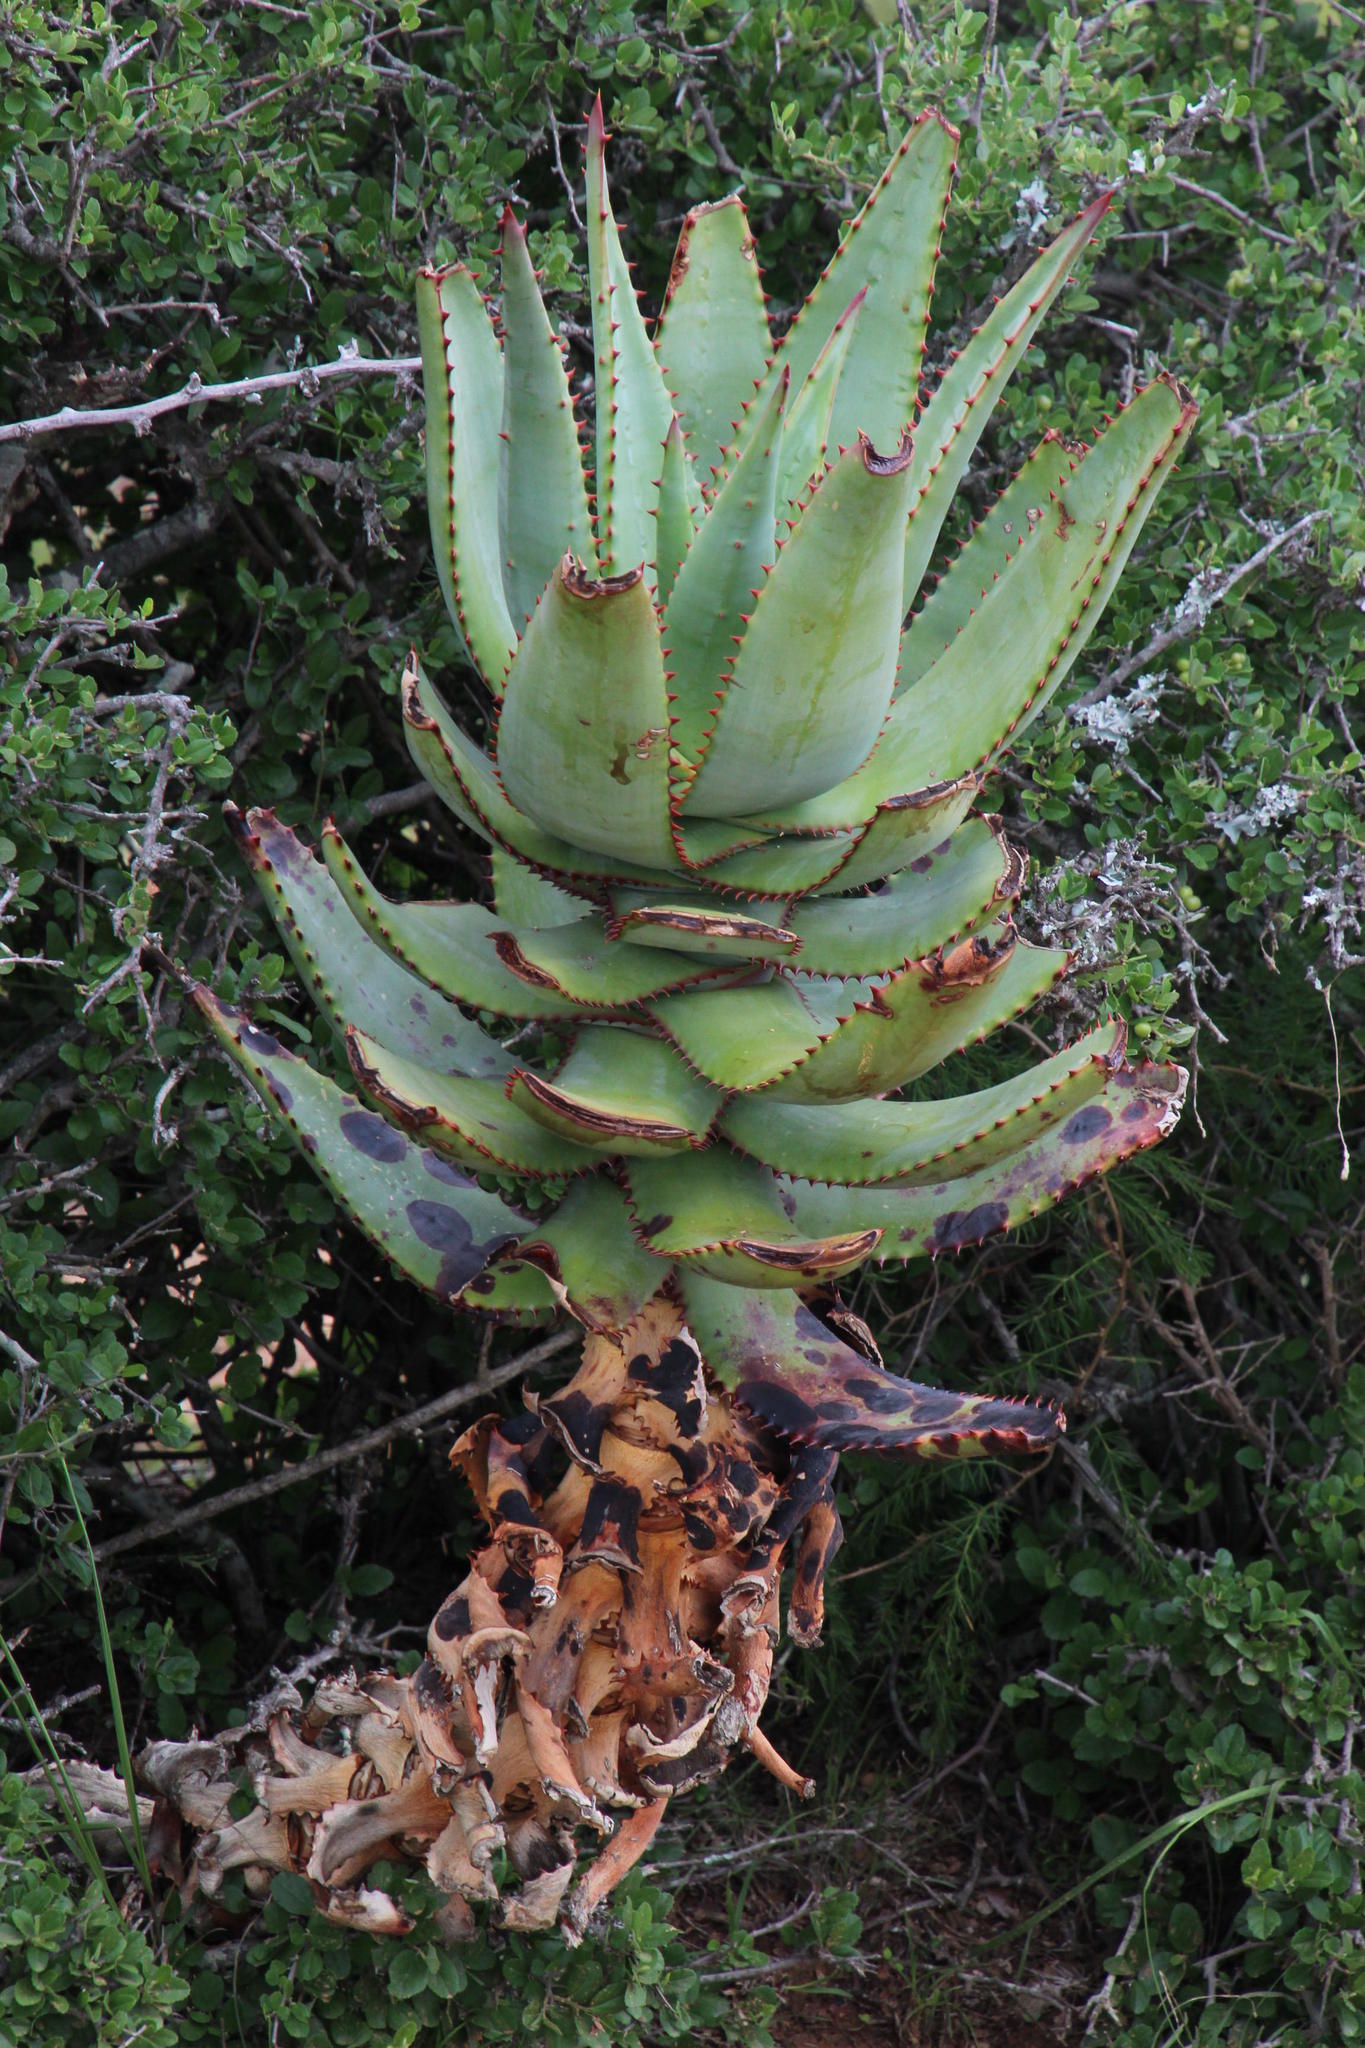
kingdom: Plantae
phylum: Tracheophyta
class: Liliopsida
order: Asparagales
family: Asphodelaceae
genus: Aloe
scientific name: Aloe ferox
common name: Bitter aloe
